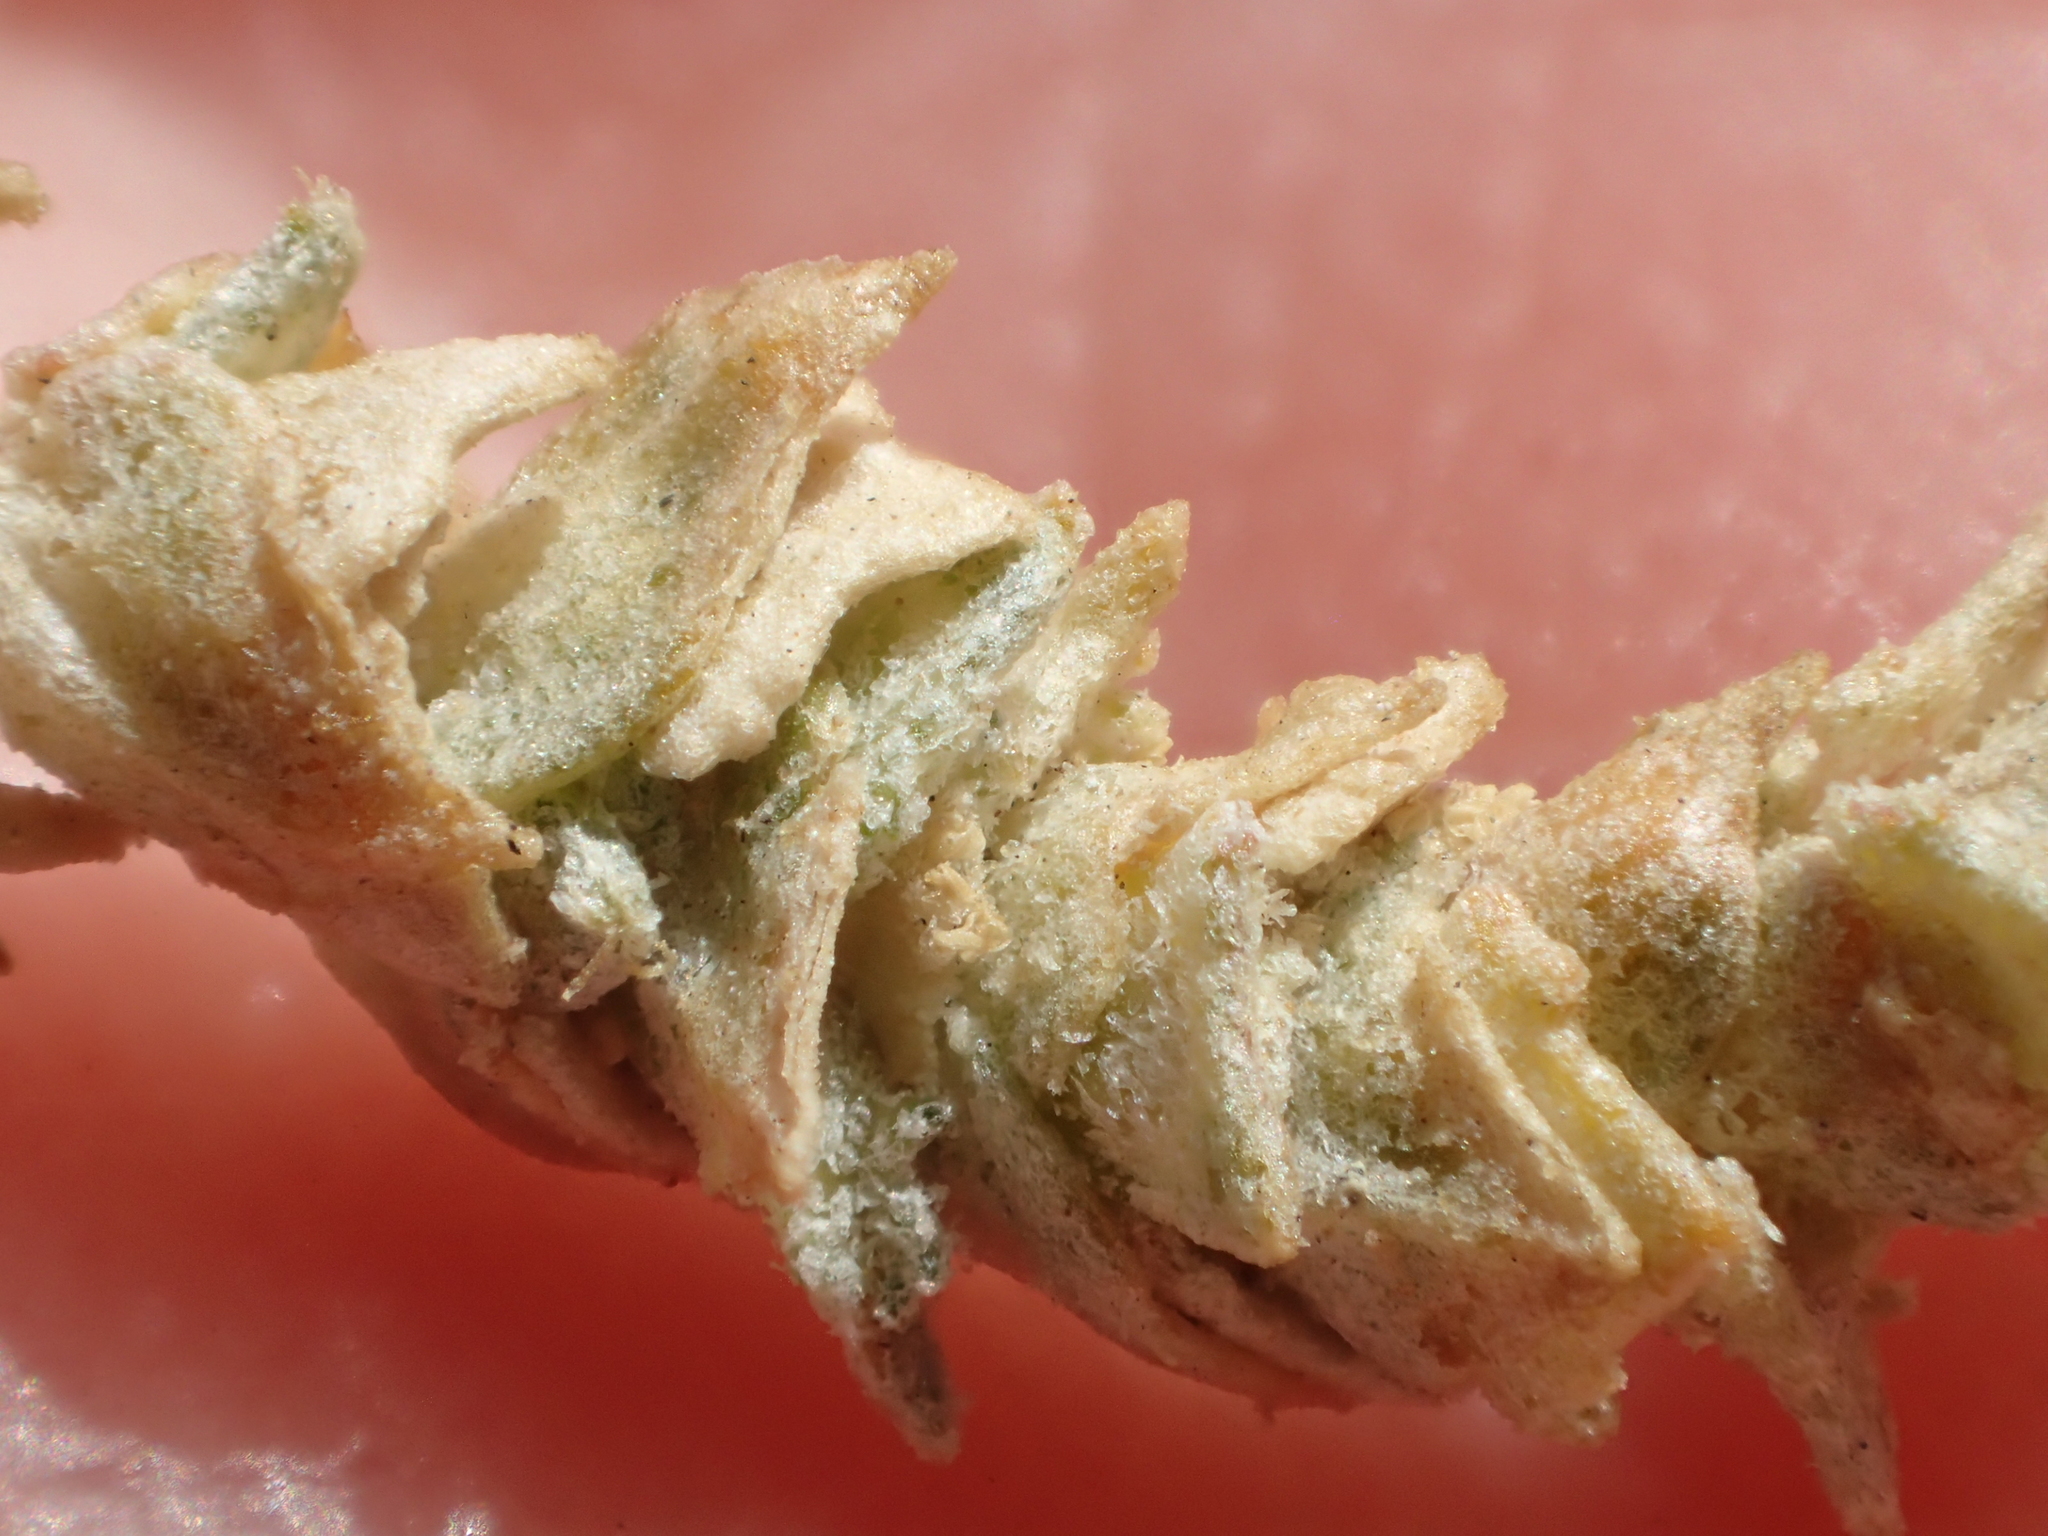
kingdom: Plantae
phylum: Tracheophyta
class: Magnoliopsida
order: Caryophyllales
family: Amaranthaceae
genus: Atriplex
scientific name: Atriplex parishii
